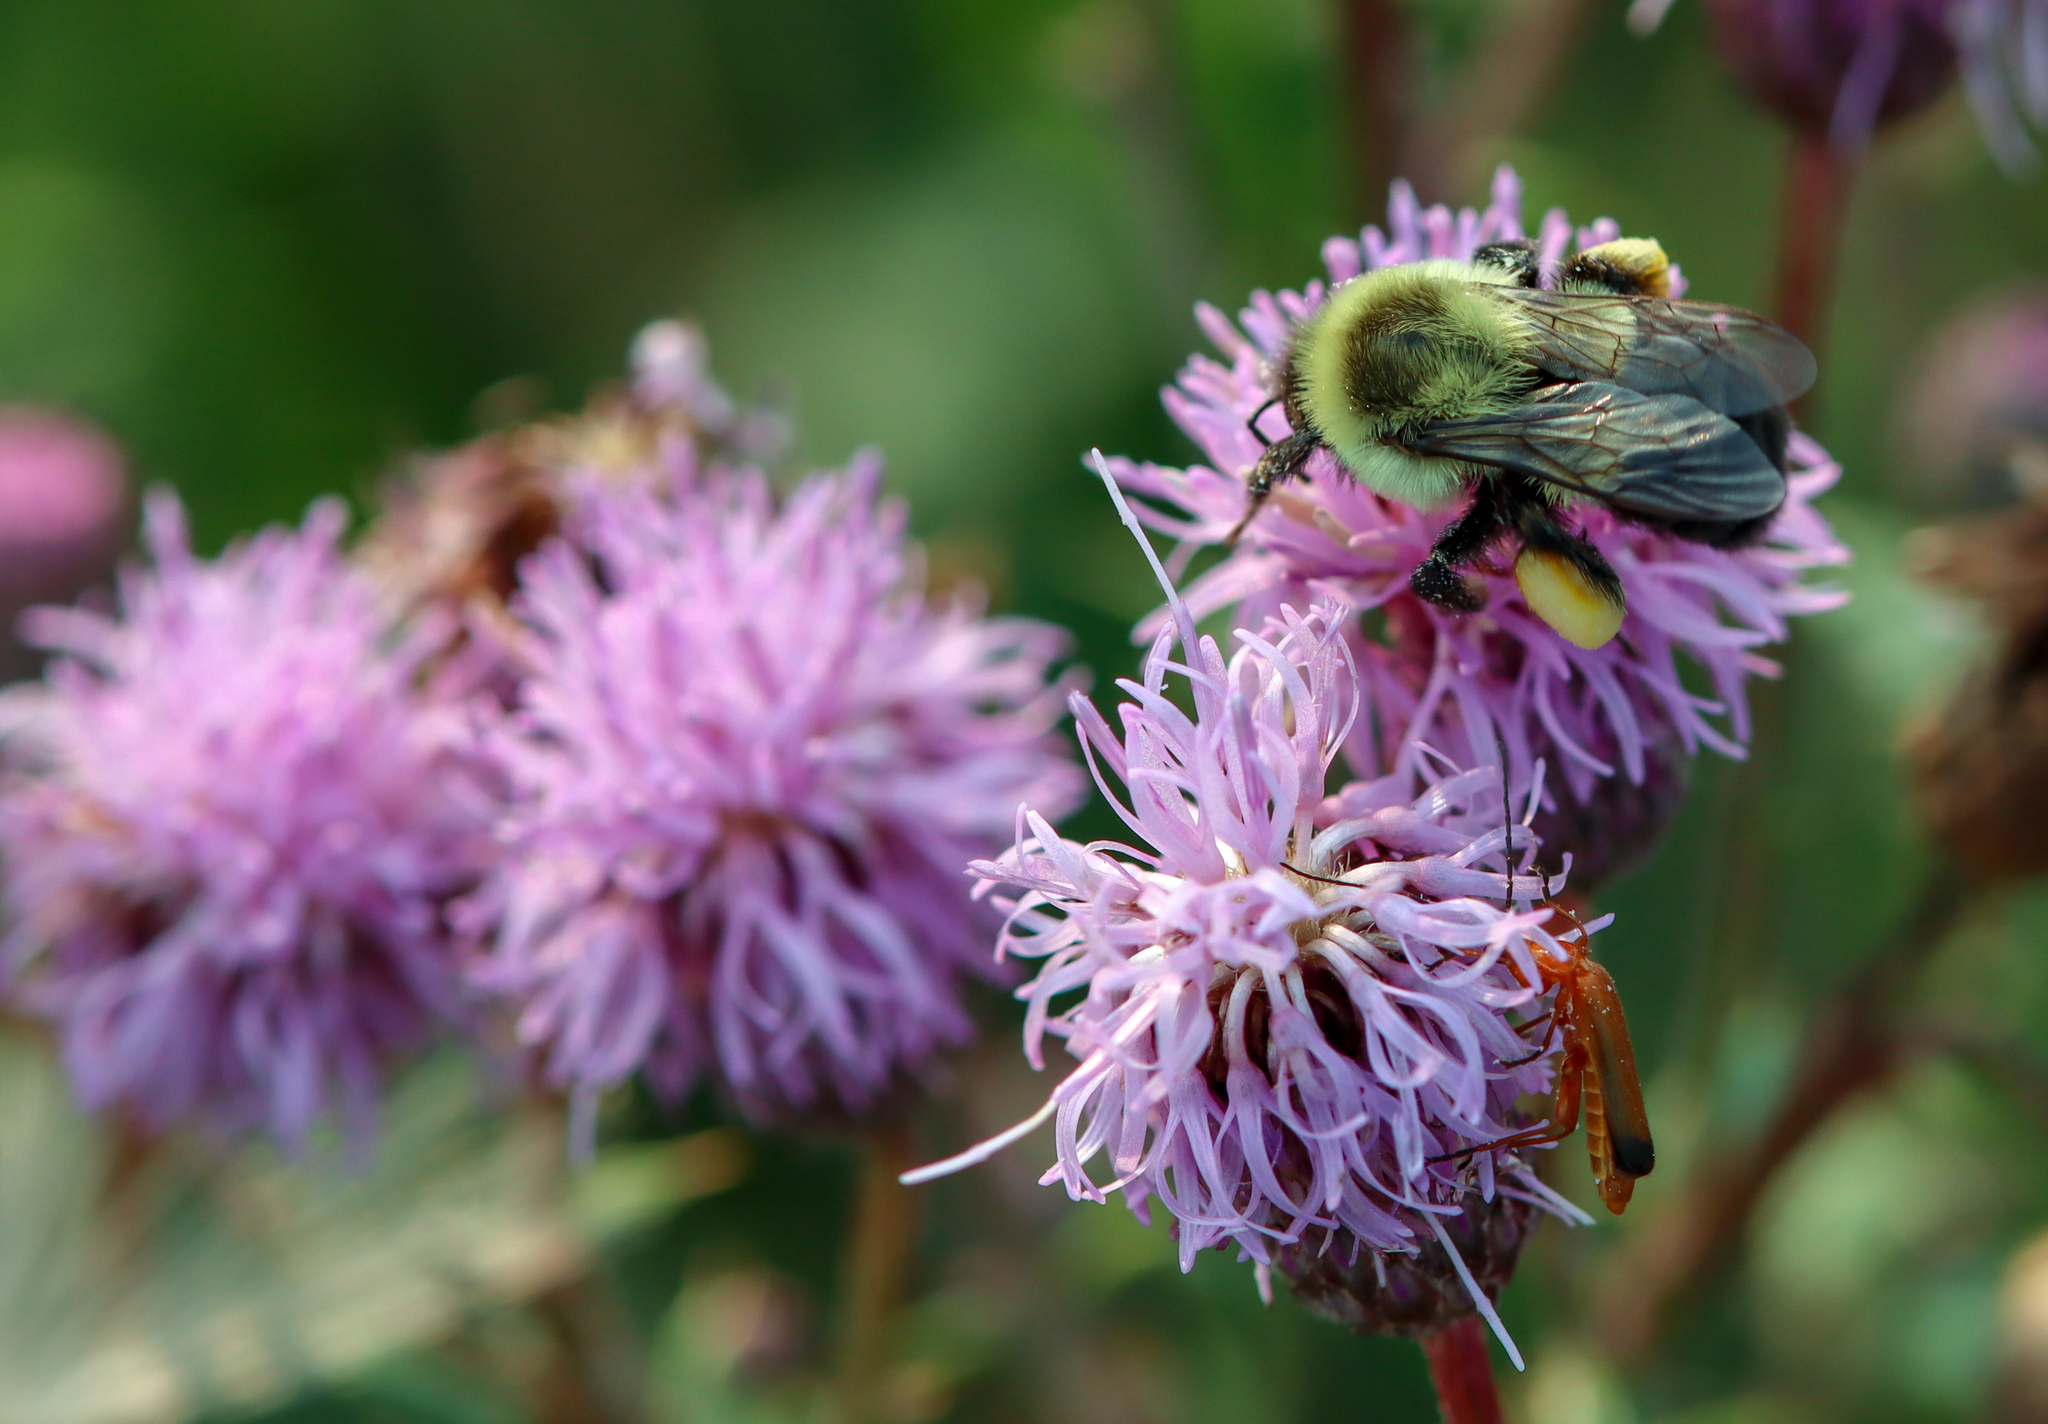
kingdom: Animalia
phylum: Arthropoda
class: Insecta
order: Hymenoptera
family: Apidae
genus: Bombus
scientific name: Bombus impatiens
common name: Common eastern bumble bee
